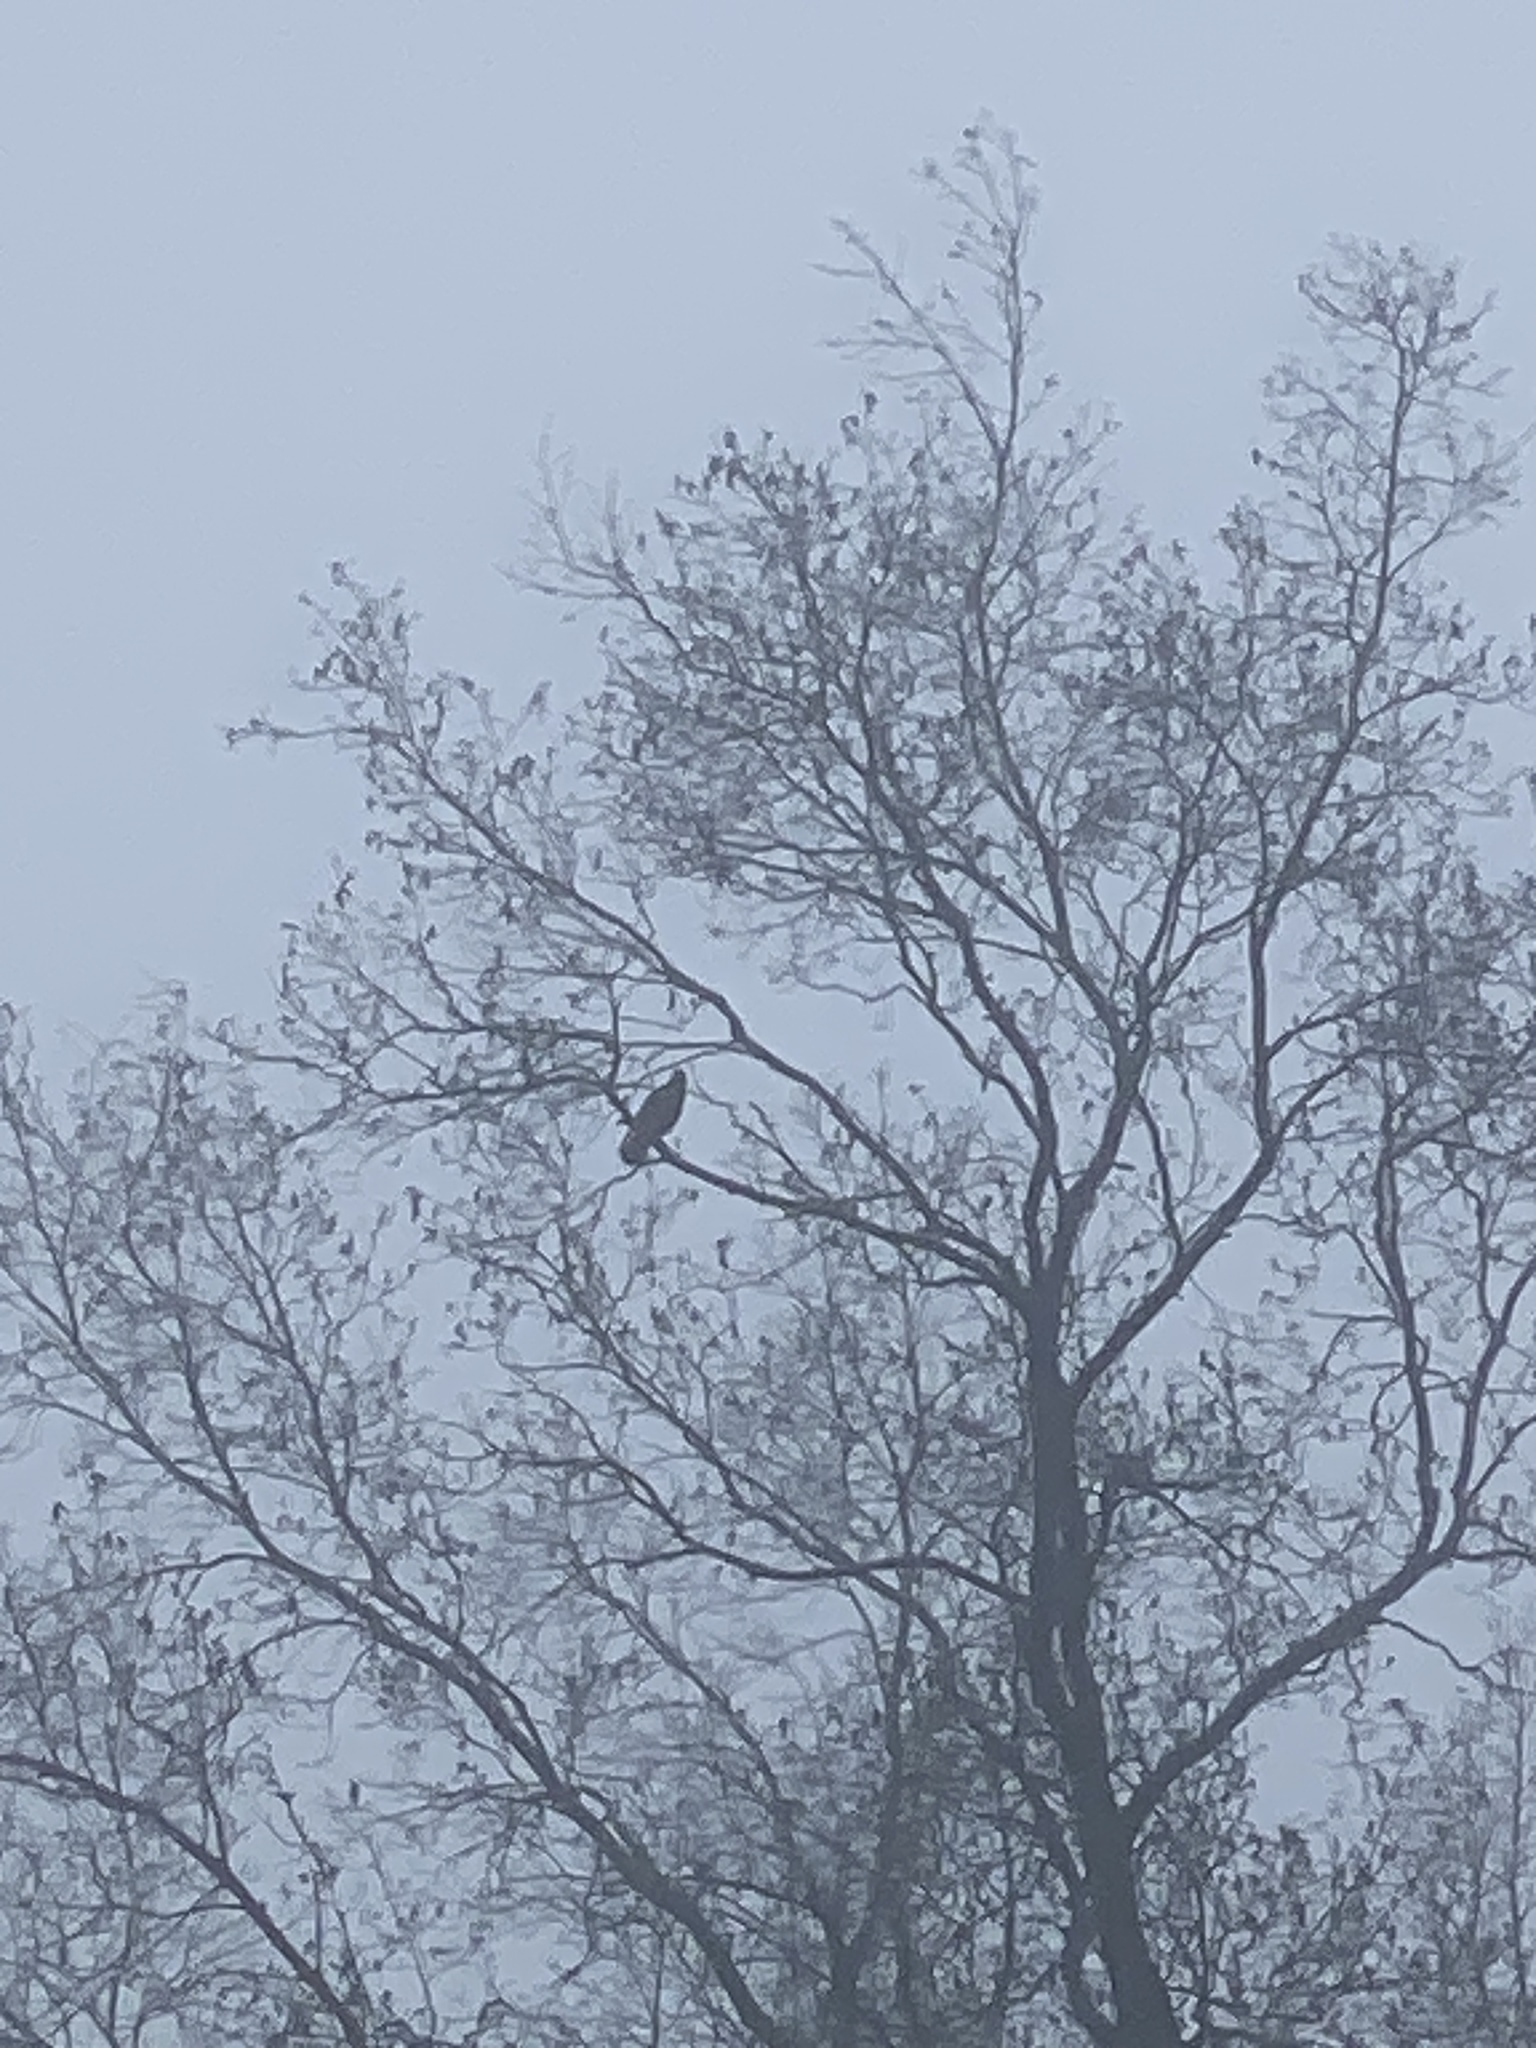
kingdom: Animalia
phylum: Chordata
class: Aves
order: Passeriformes
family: Corvidae
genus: Corvus
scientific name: Corvus brachyrhynchos
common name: American crow
